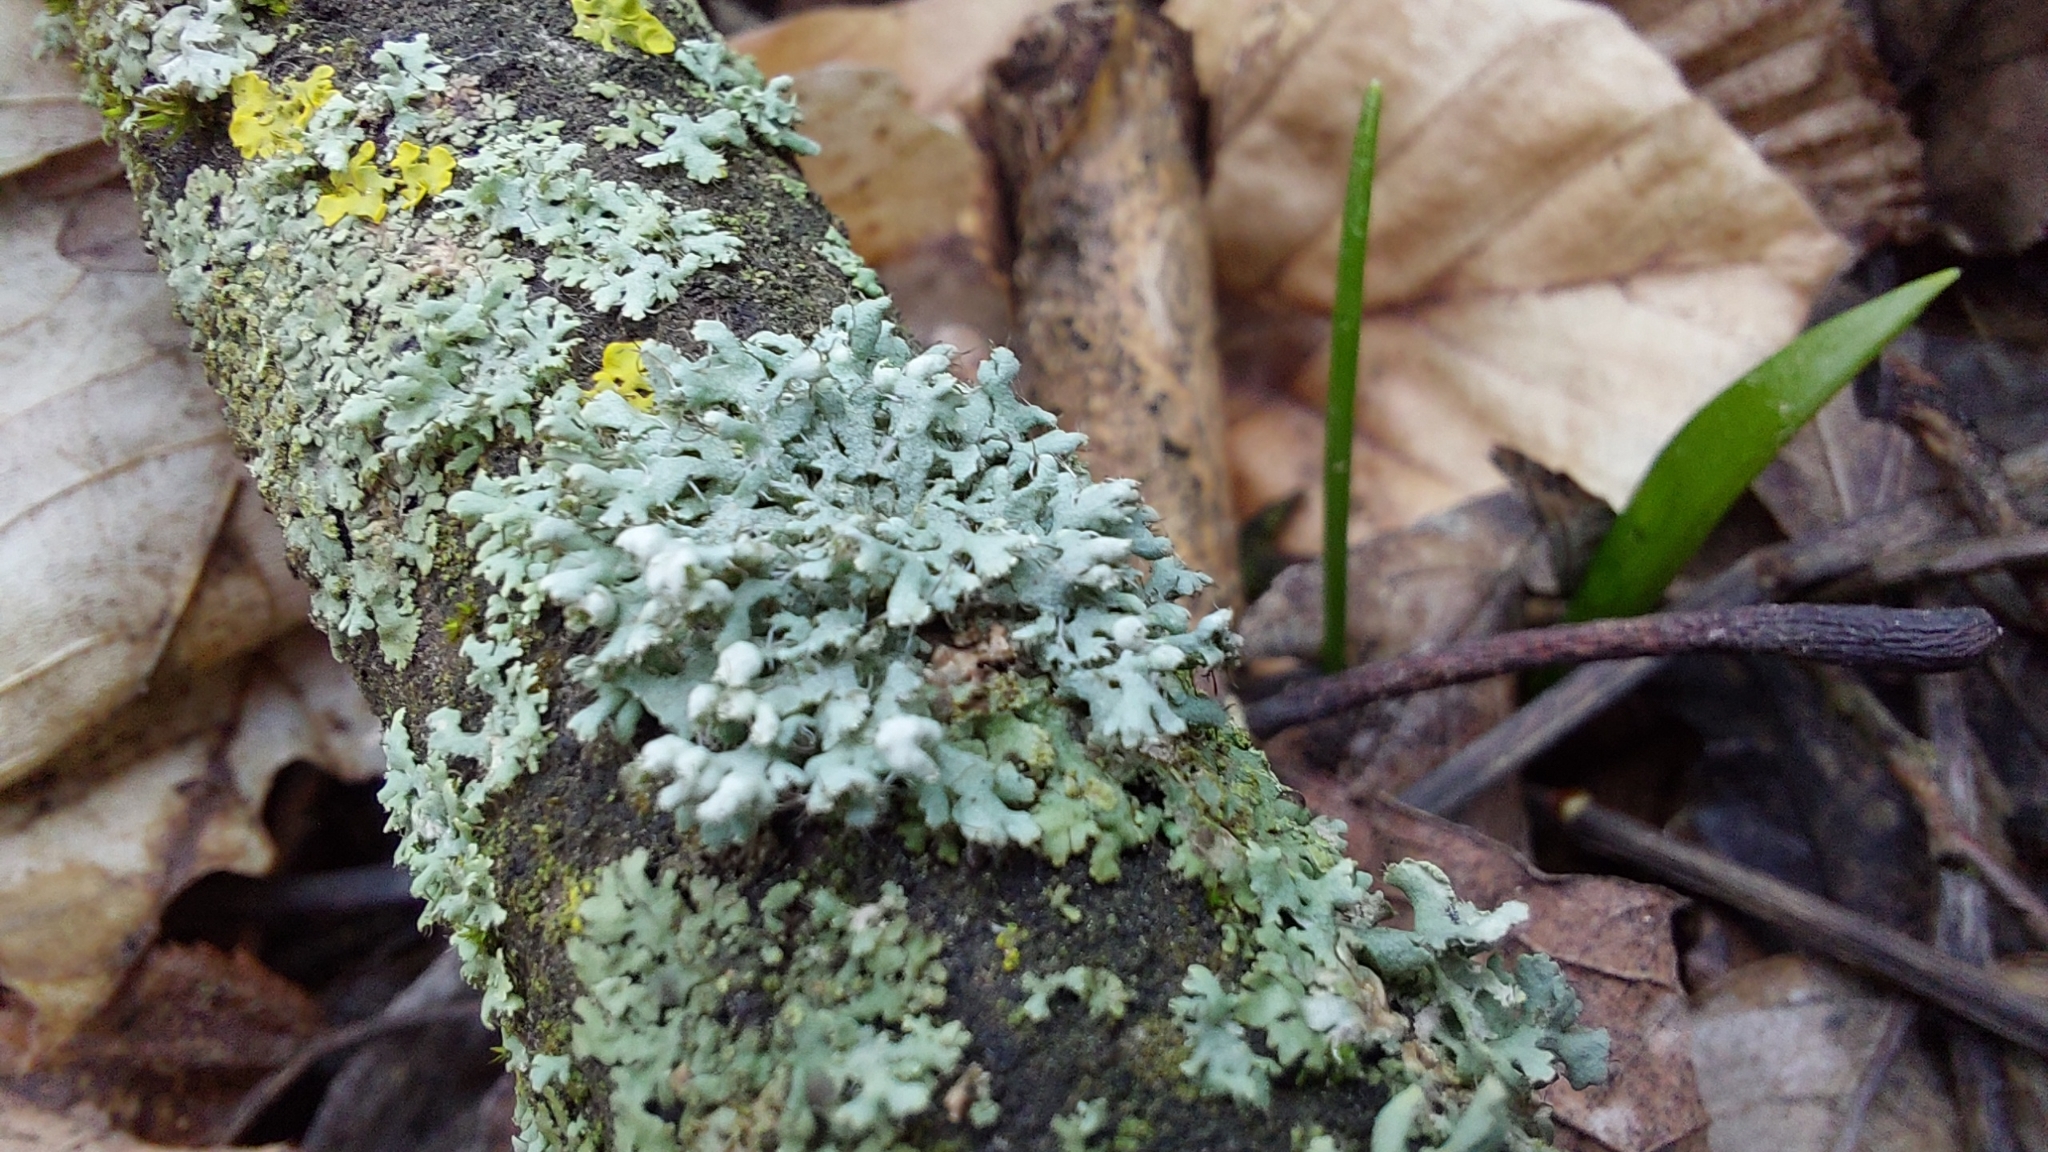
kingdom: Fungi
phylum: Ascomycota
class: Lecanoromycetes
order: Caliciales
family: Physciaceae
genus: Physcia
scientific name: Physcia adscendens
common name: Hooded rosette lichen
